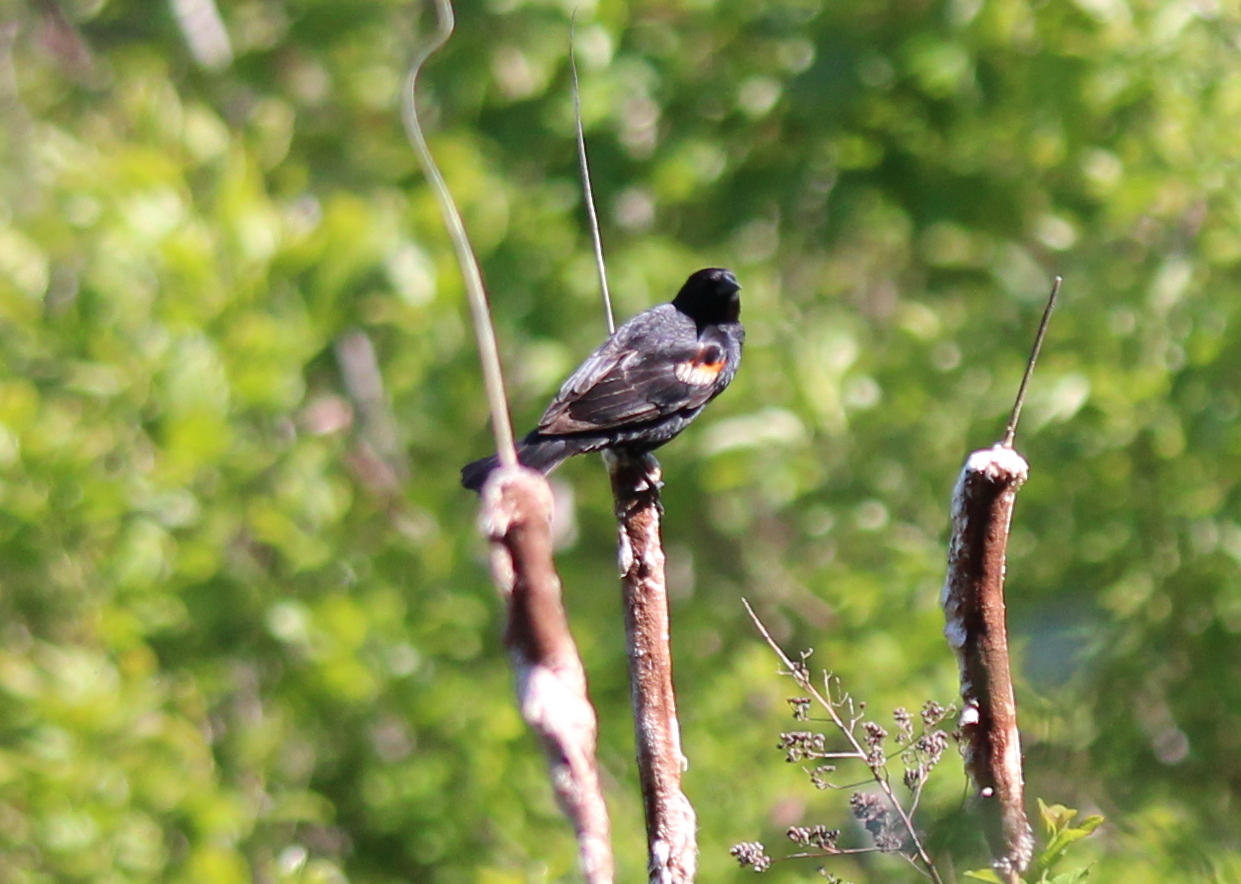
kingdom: Animalia
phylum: Chordata
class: Aves
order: Passeriformes
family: Icteridae
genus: Agelaius
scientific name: Agelaius phoeniceus
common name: Red-winged blackbird
